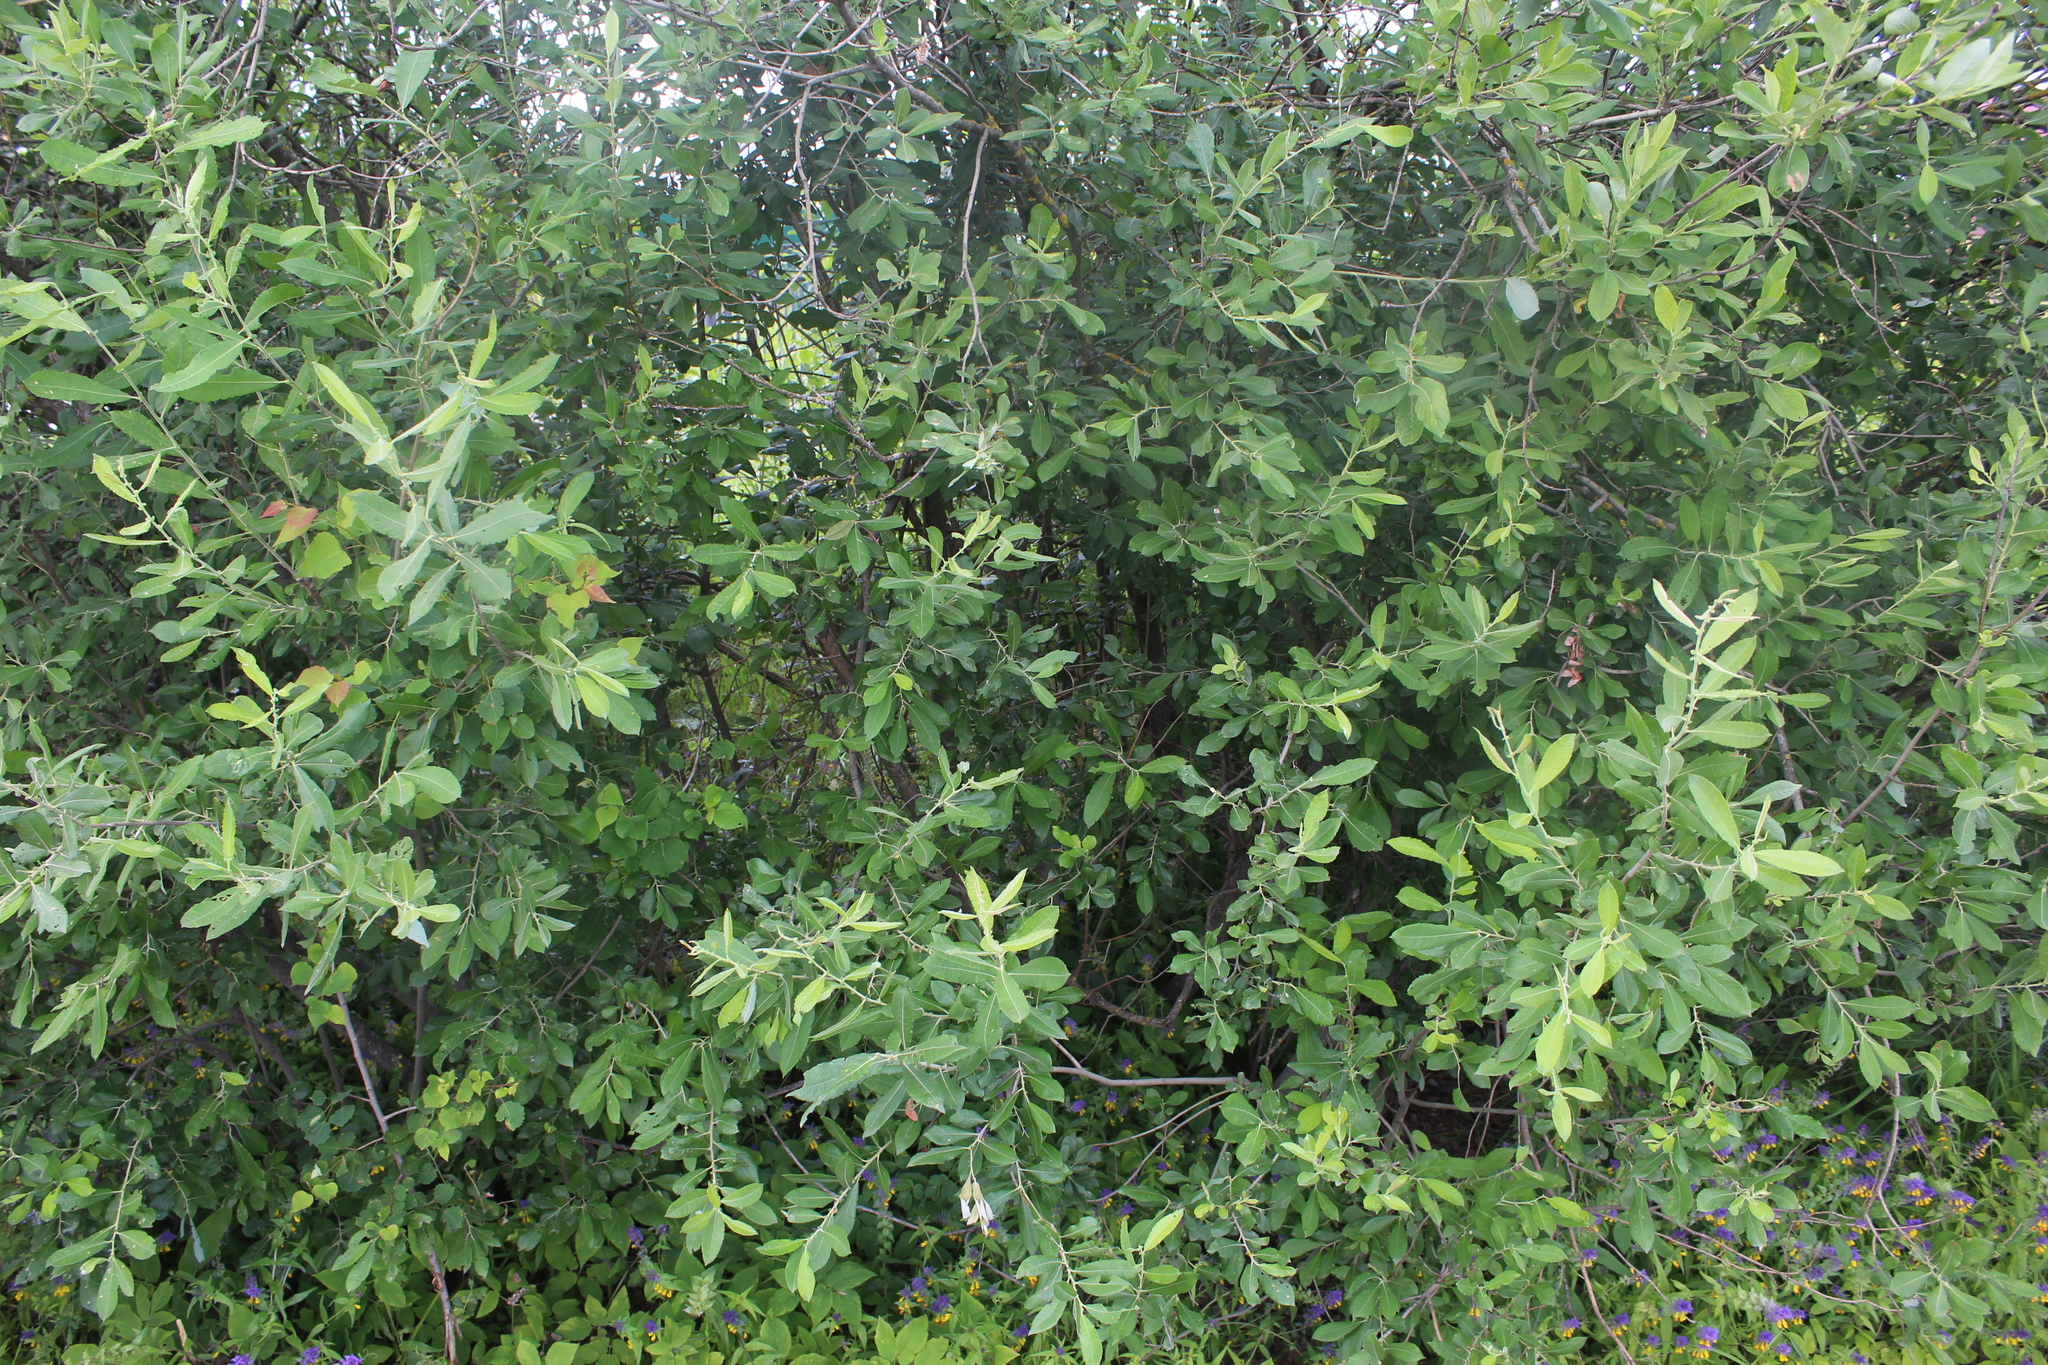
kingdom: Plantae
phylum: Tracheophyta
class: Magnoliopsida
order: Malpighiales
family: Salicaceae
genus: Salix
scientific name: Salix cinerea
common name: Common sallow
